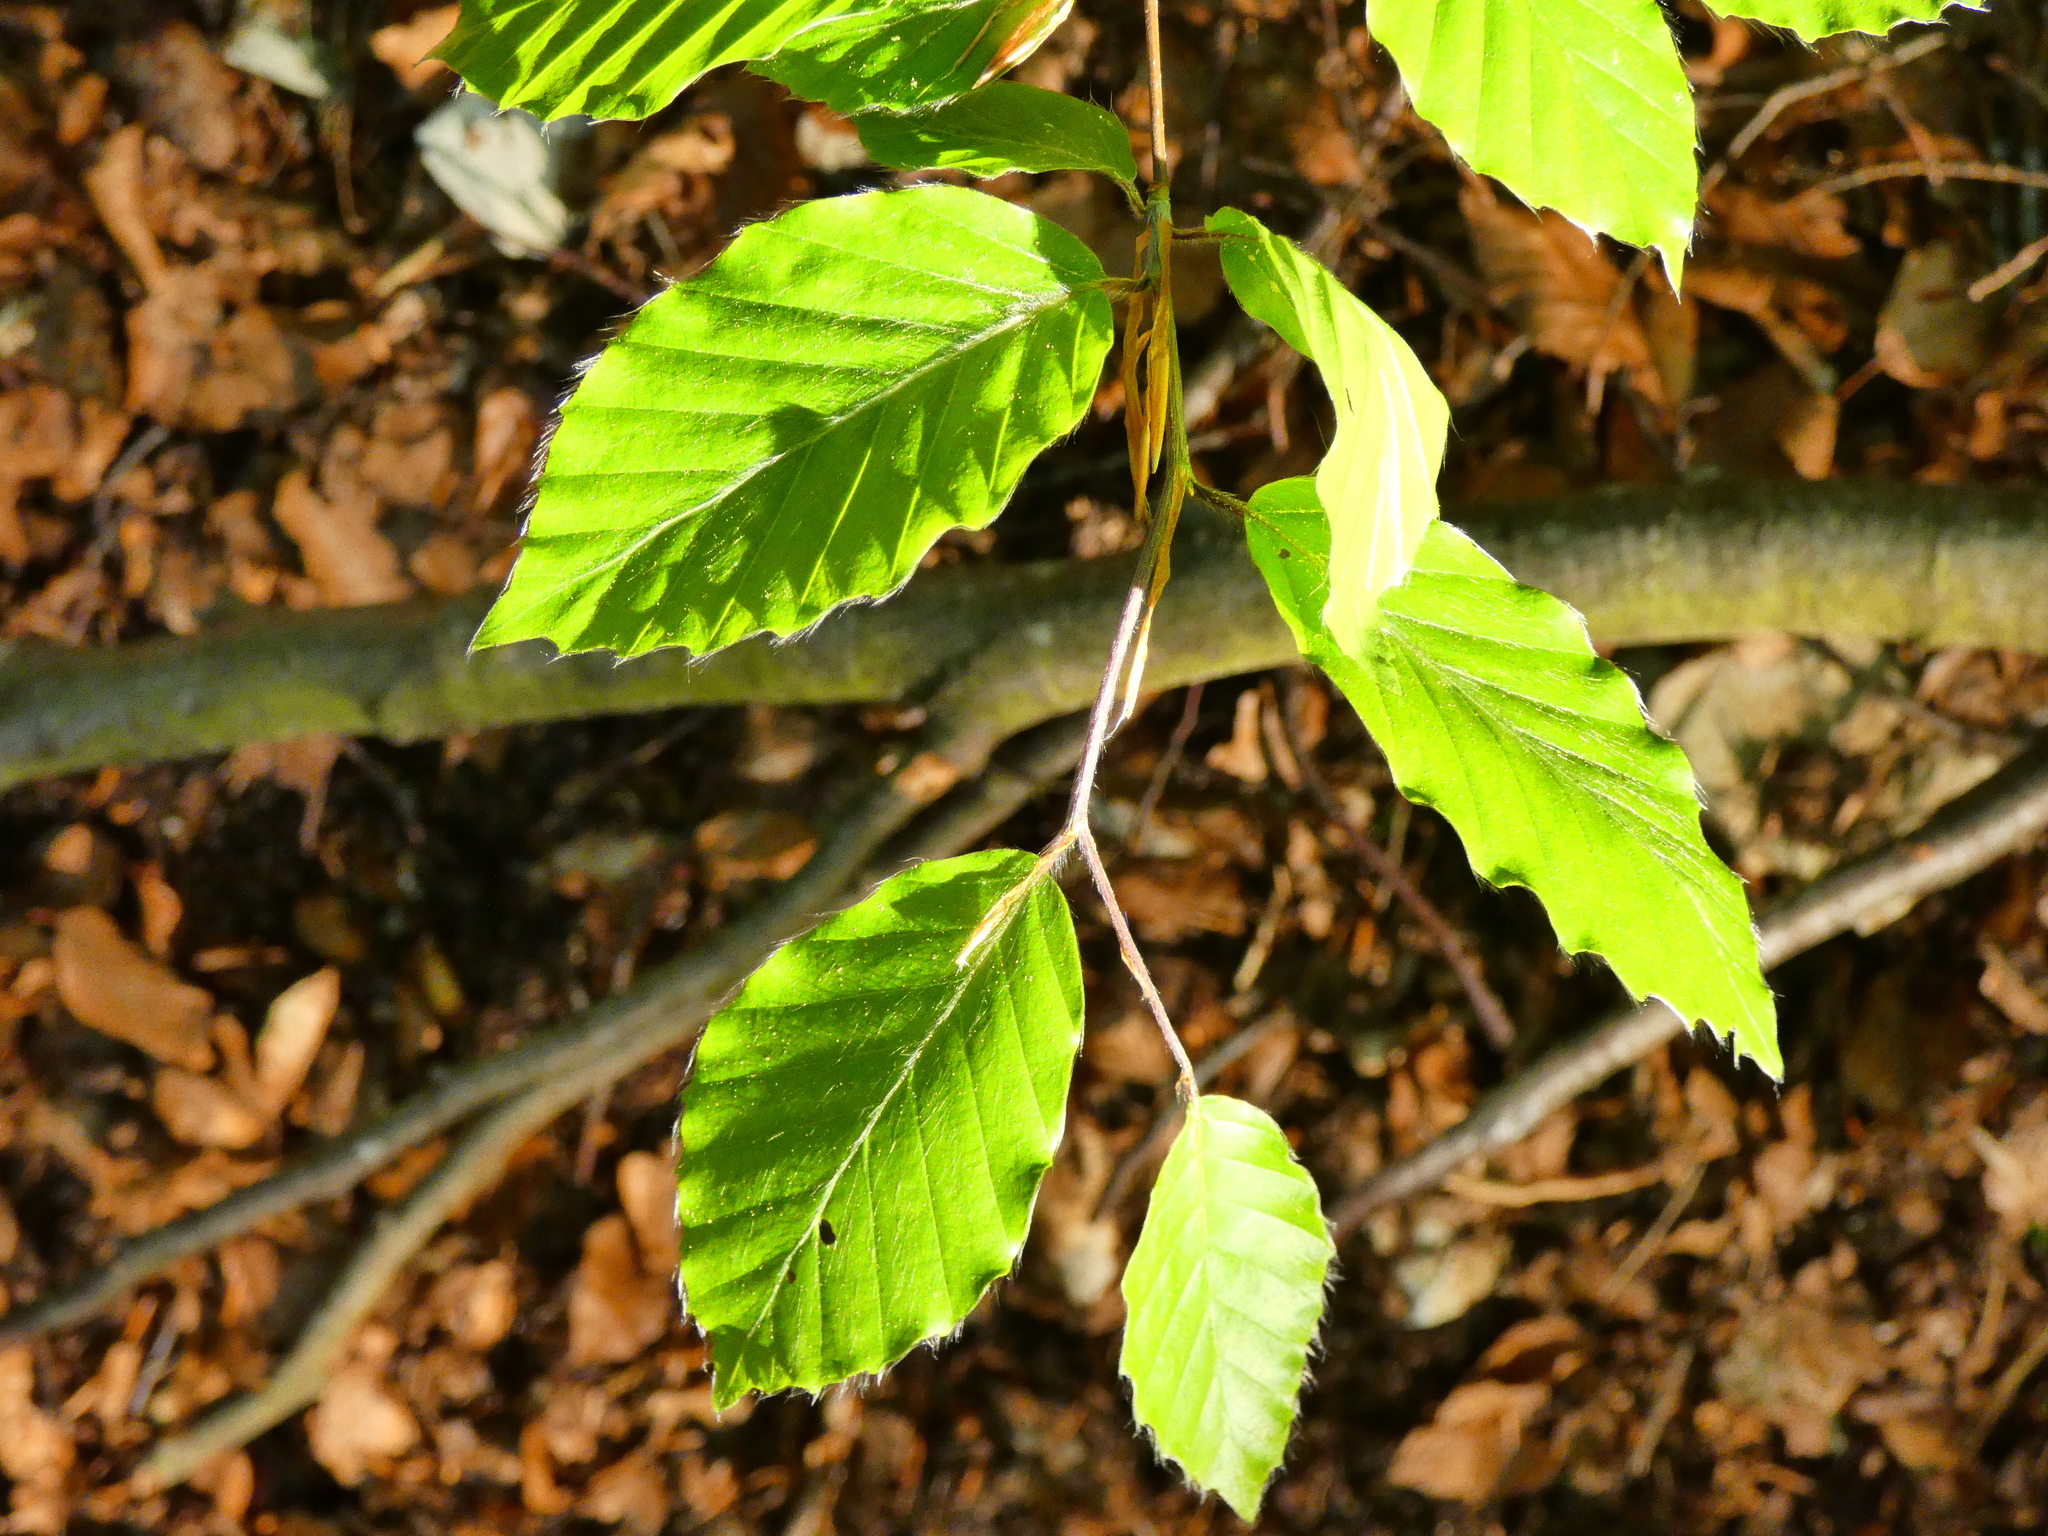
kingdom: Plantae
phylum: Tracheophyta
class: Magnoliopsida
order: Fagales
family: Betulaceae
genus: Carpinus
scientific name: Carpinus betulus
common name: Hornbeam
